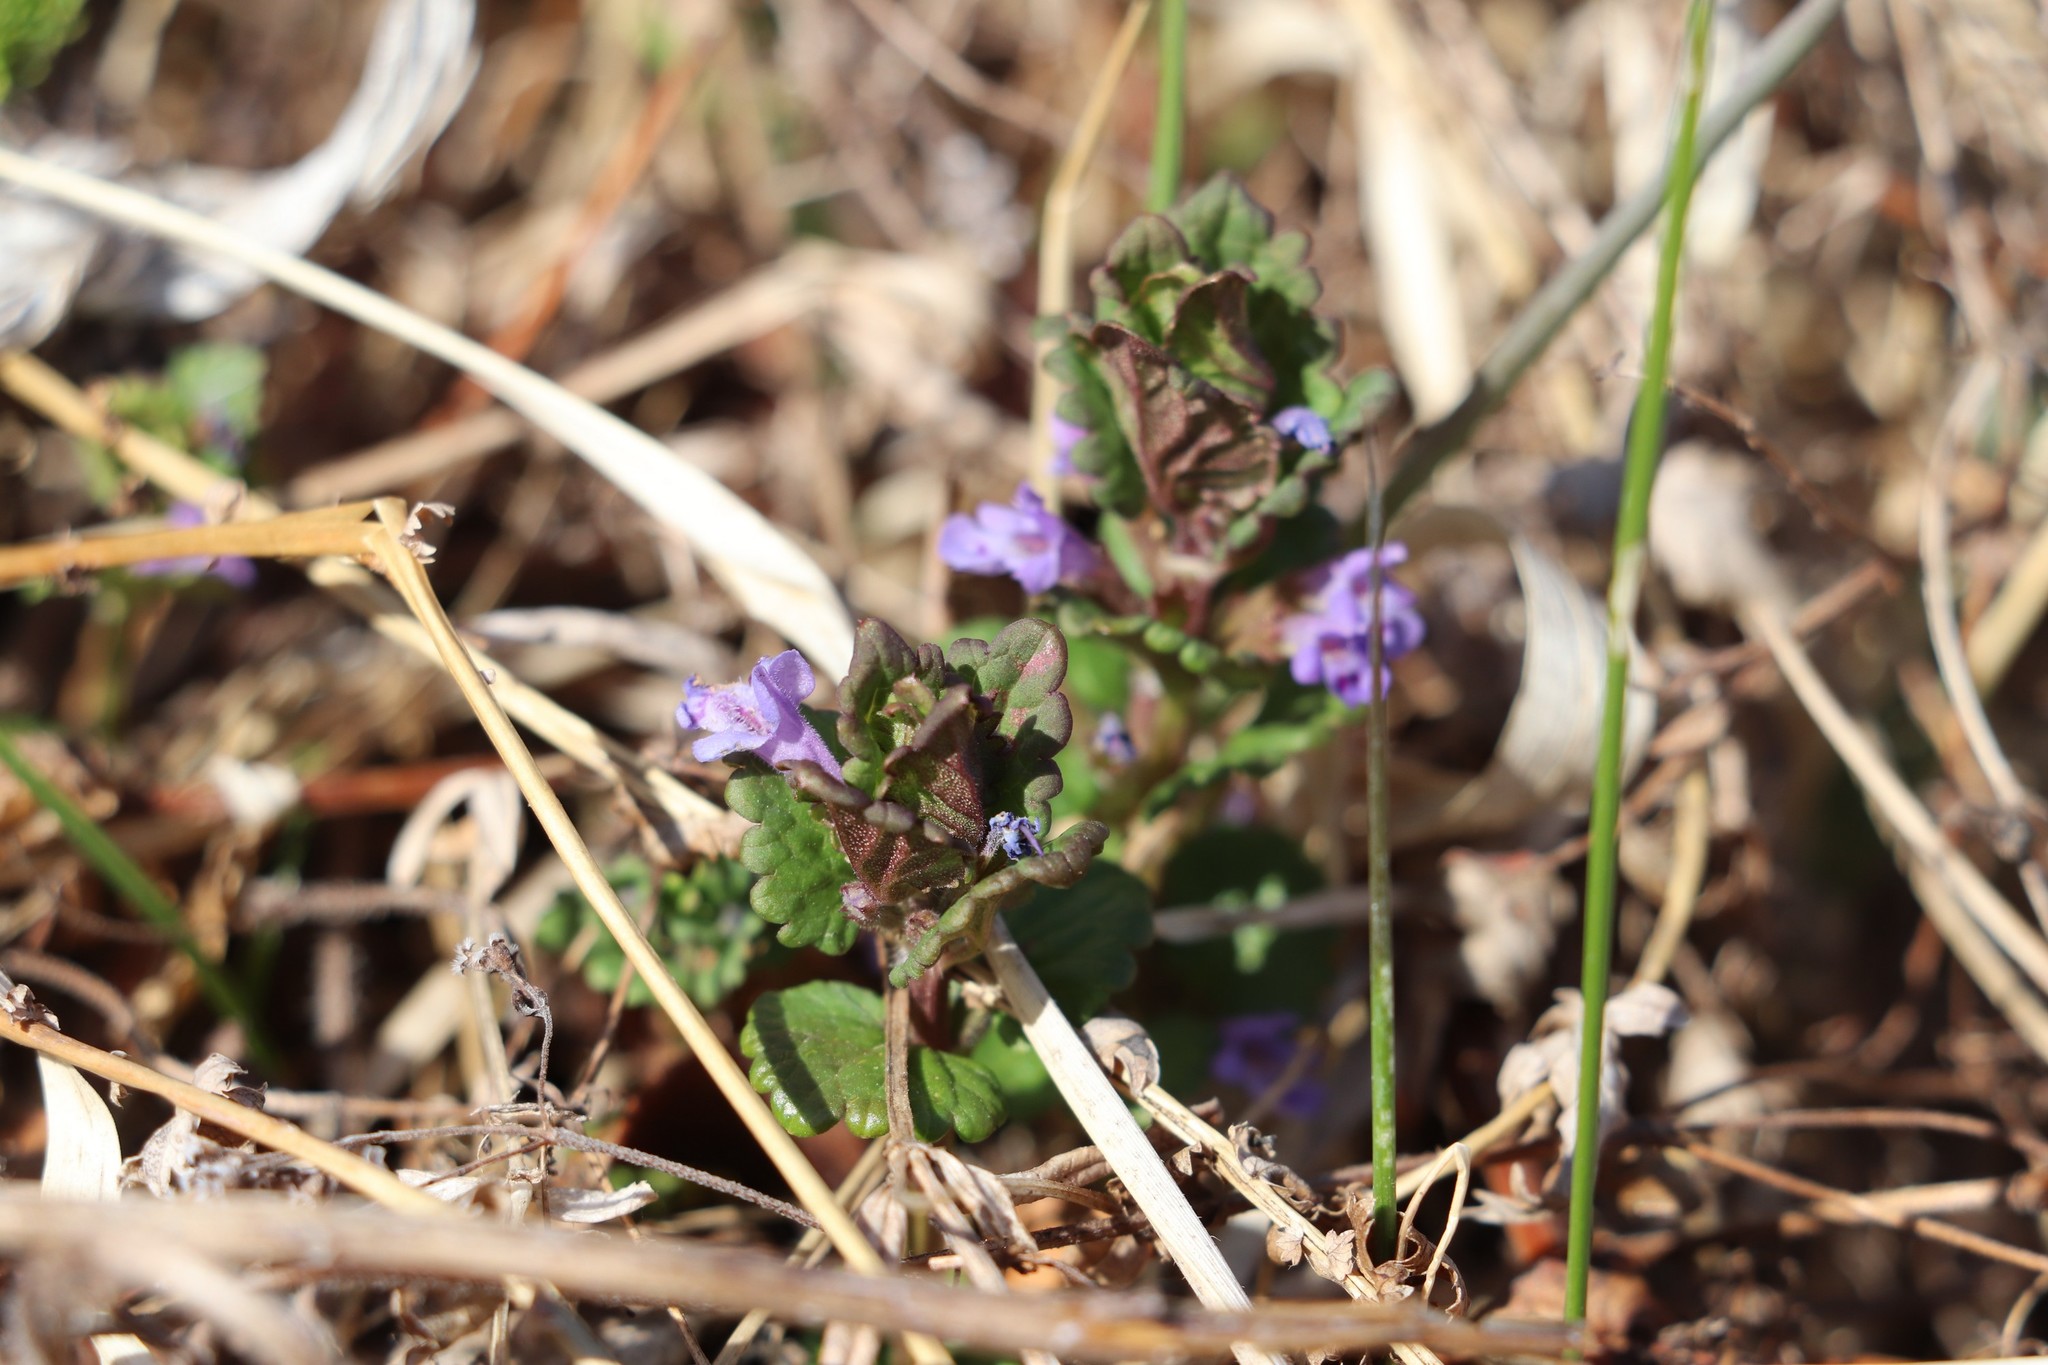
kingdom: Plantae
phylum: Tracheophyta
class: Magnoliopsida
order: Lamiales
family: Lamiaceae
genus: Glechoma
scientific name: Glechoma hederacea
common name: Ground ivy
